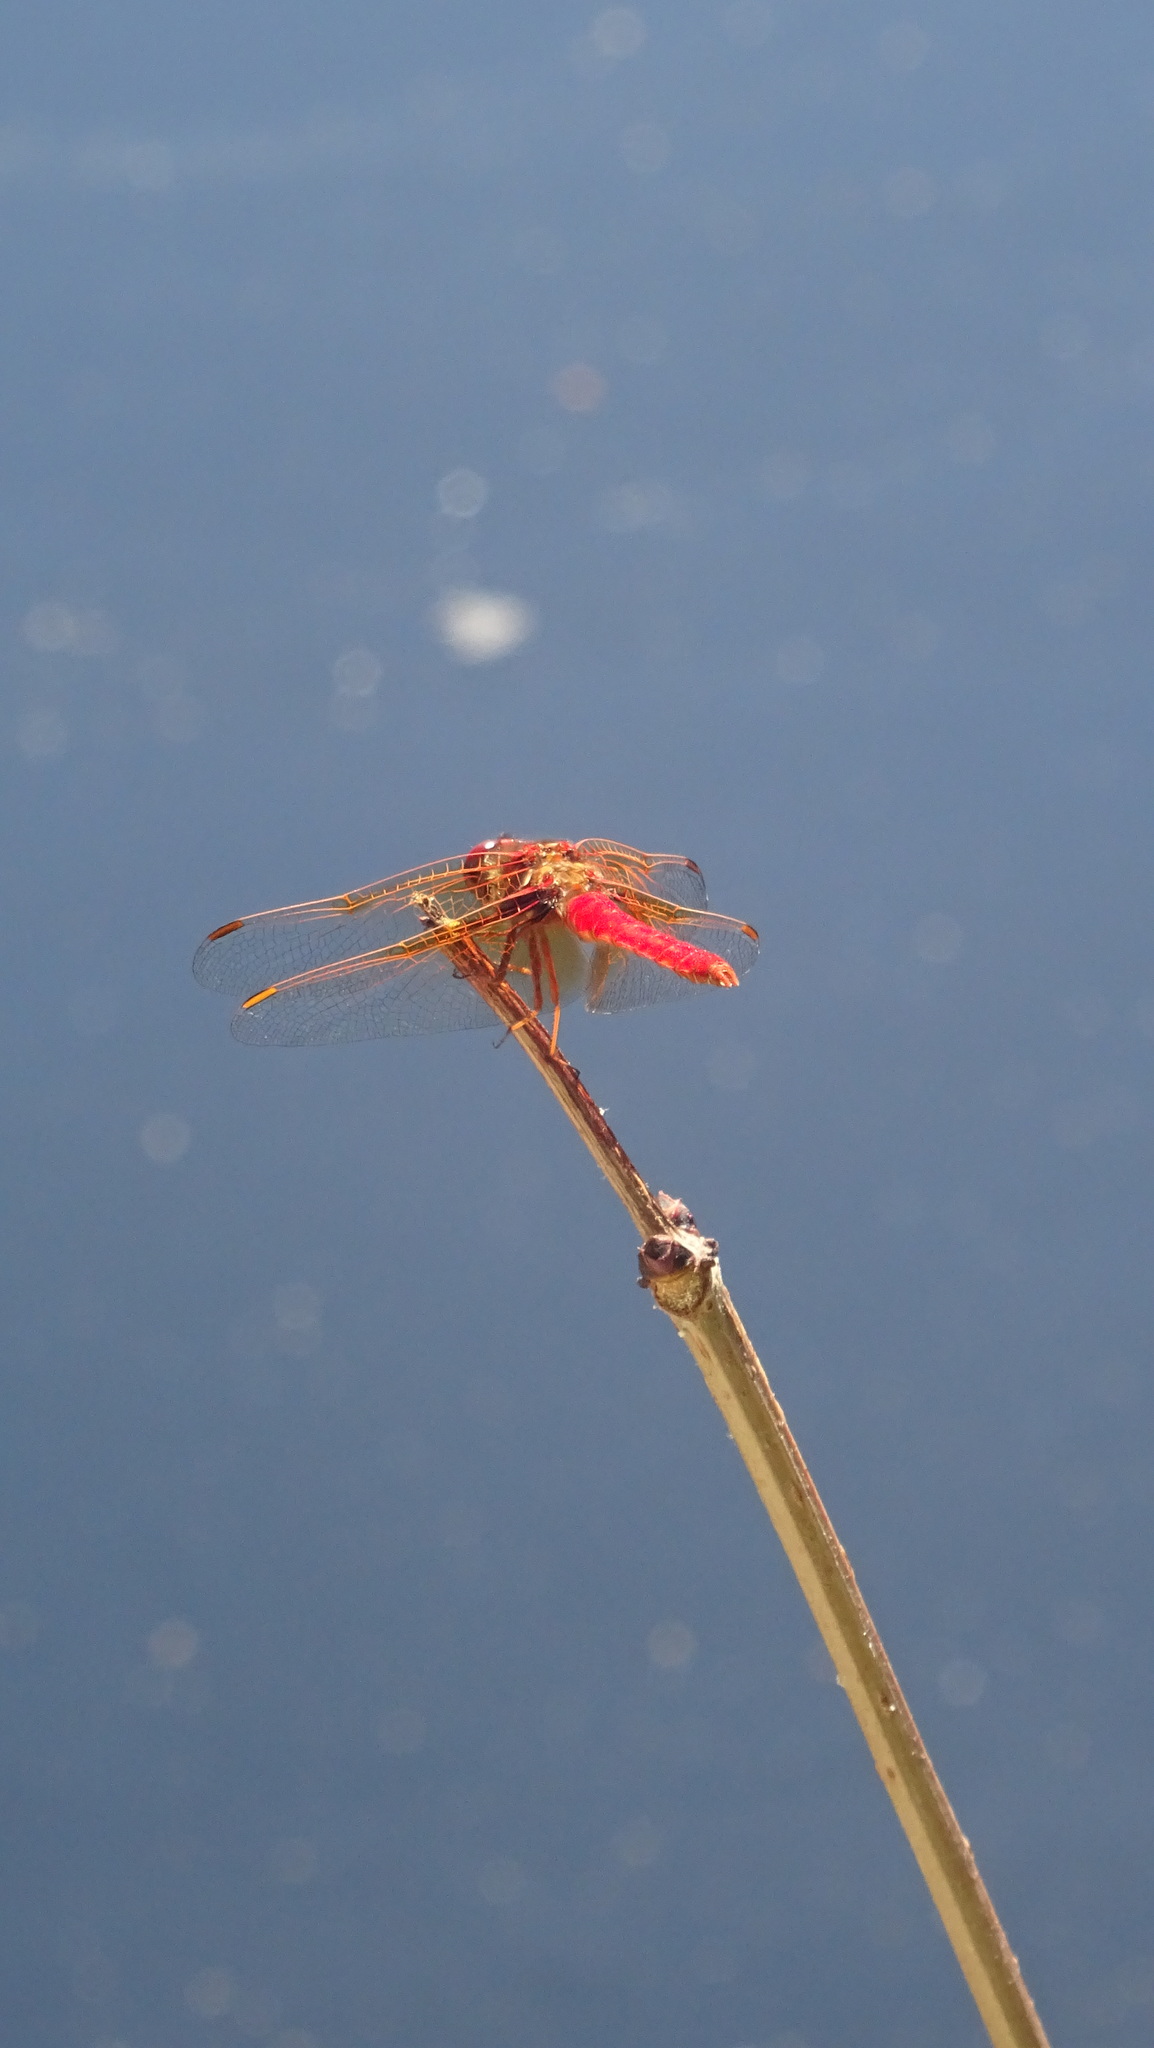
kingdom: Animalia
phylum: Arthropoda
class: Insecta
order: Odonata
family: Libellulidae
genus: Sympetrum
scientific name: Sympetrum illotum
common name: Cardinal meadowhawk
